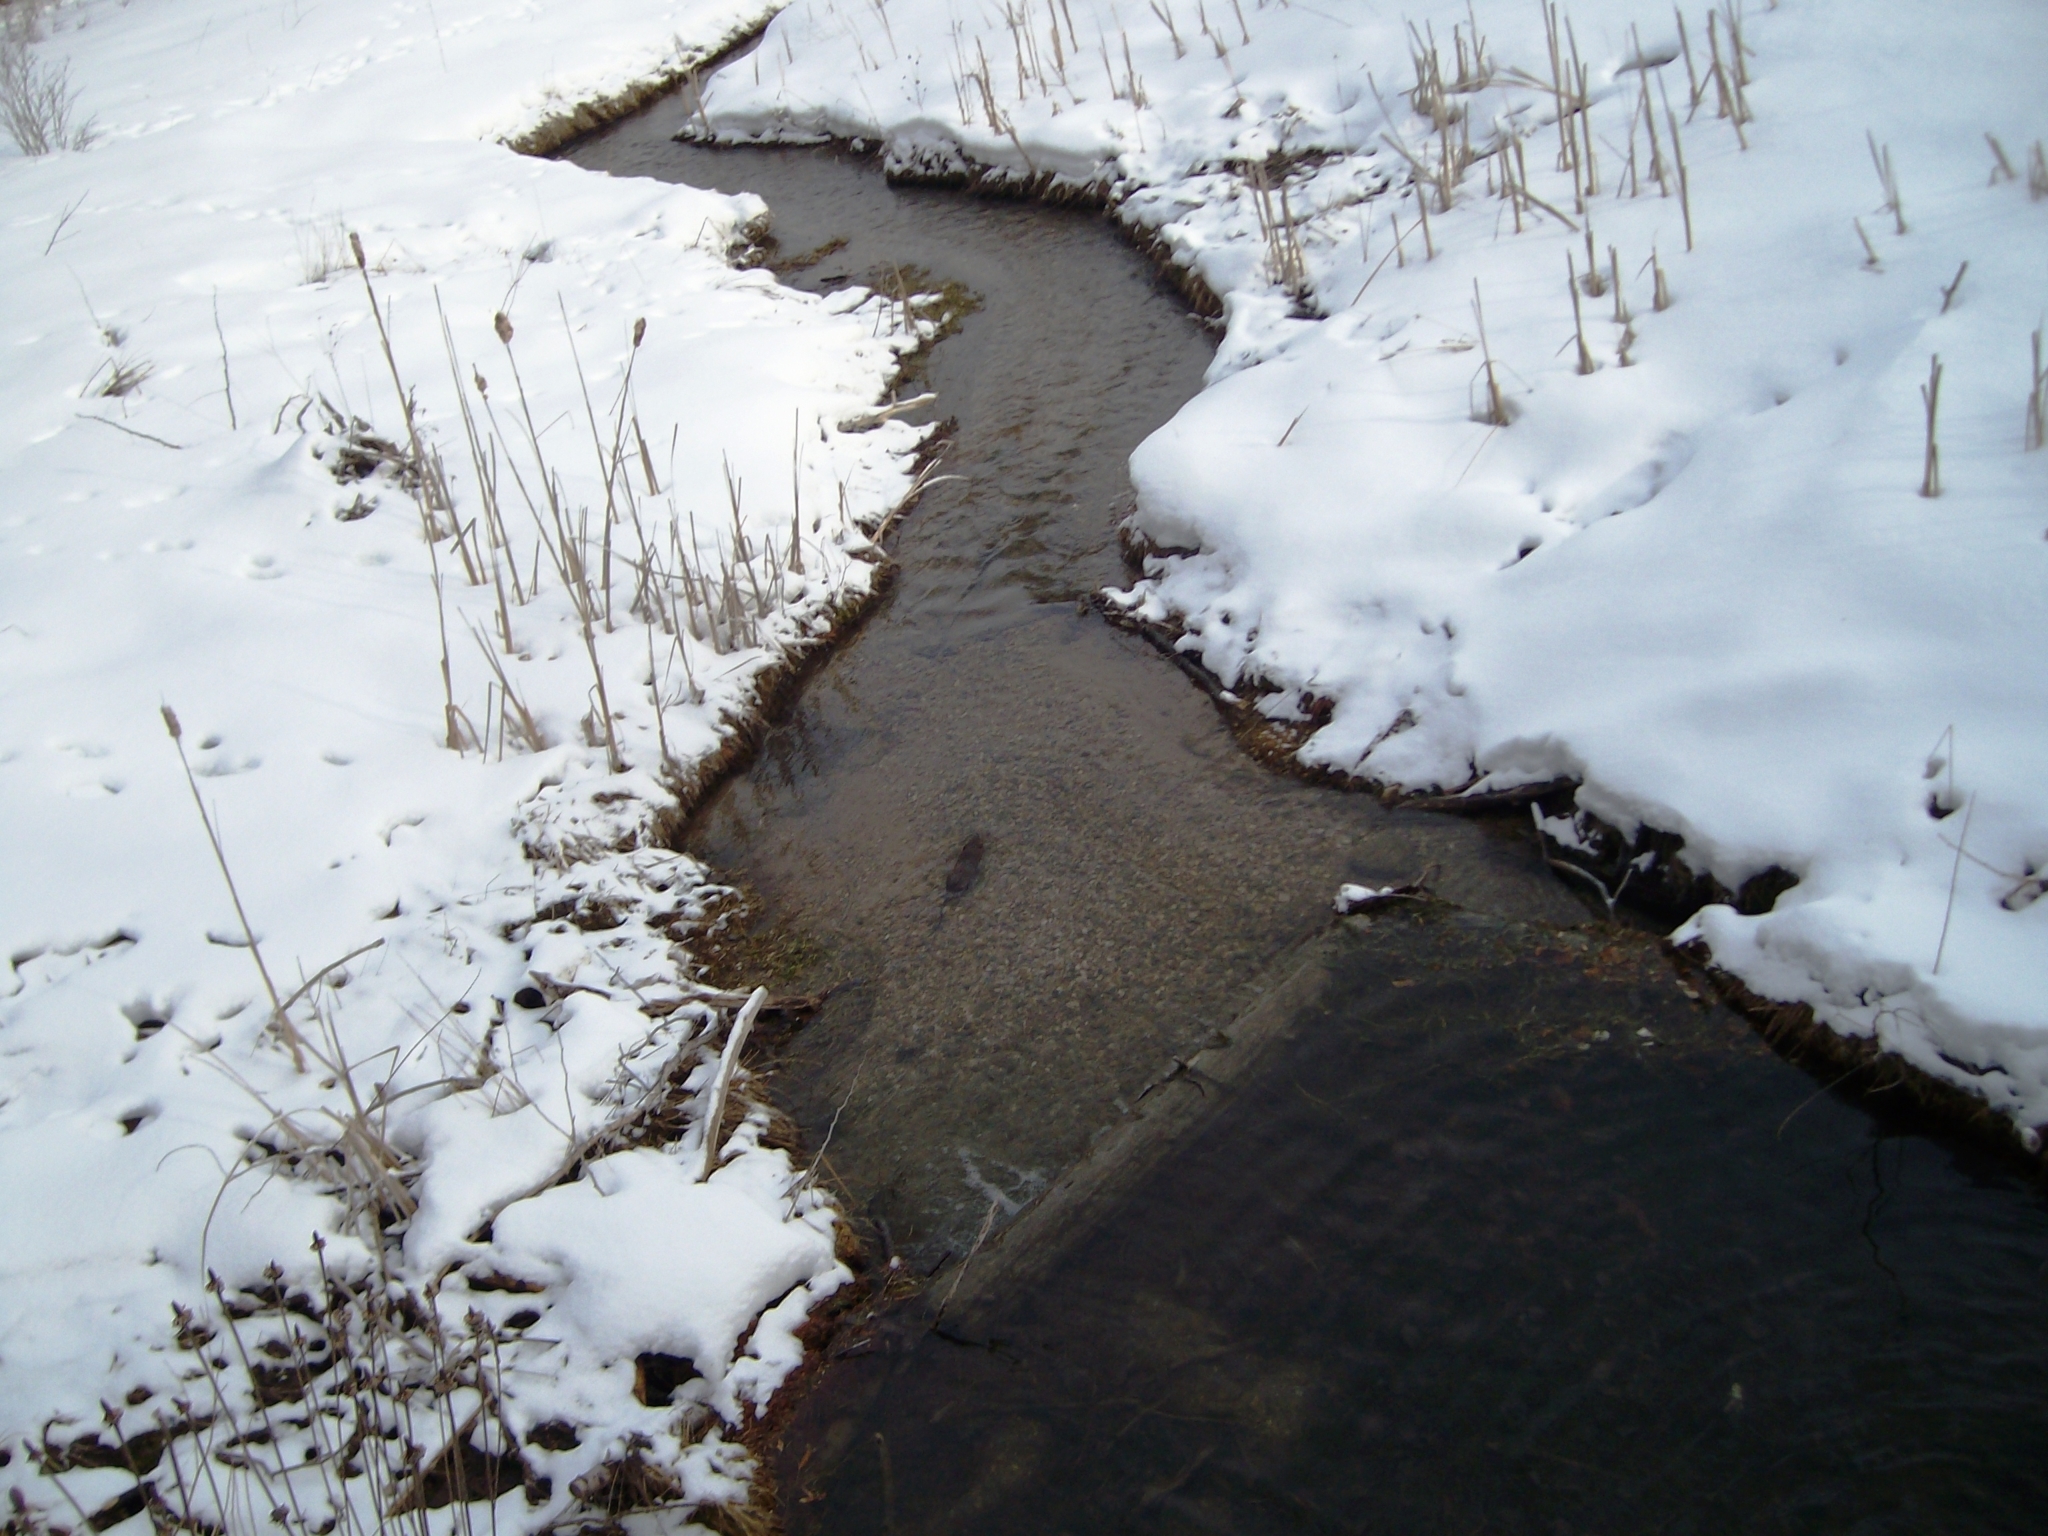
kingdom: Animalia
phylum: Chordata
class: Mammalia
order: Rodentia
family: Cricetidae
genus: Ondatra
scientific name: Ondatra zibethicus
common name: Muskrat
